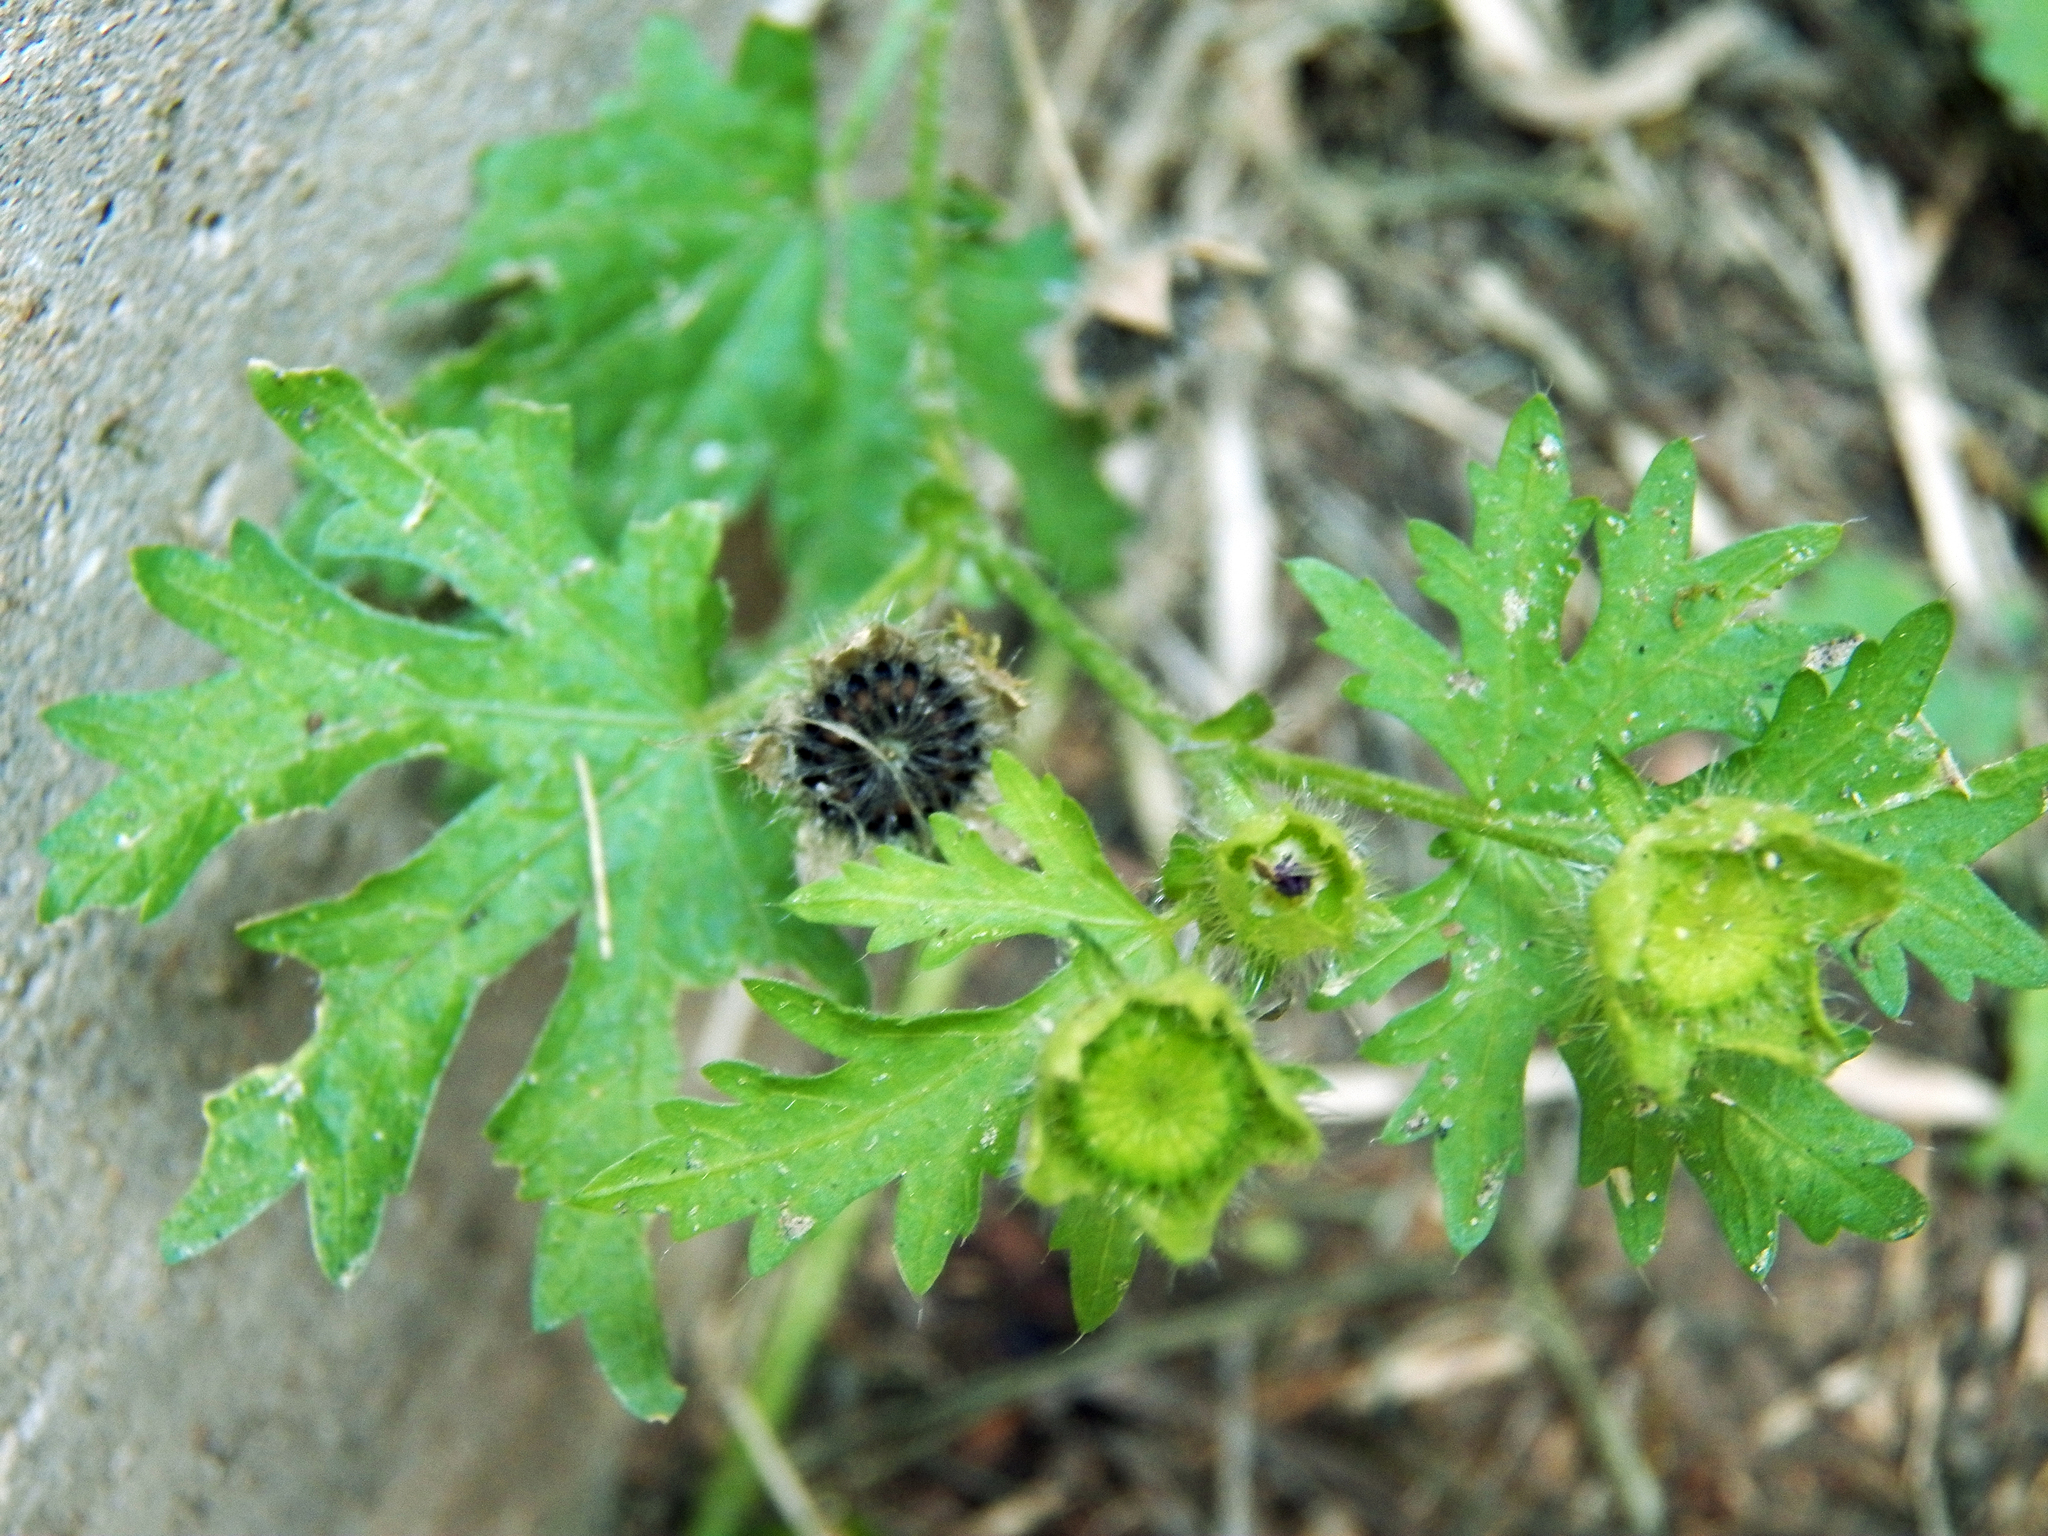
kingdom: Plantae
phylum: Tracheophyta
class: Magnoliopsida
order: Malvales
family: Malvaceae
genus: Modiola
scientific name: Modiola caroliniana
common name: Carolina bristlemallow
